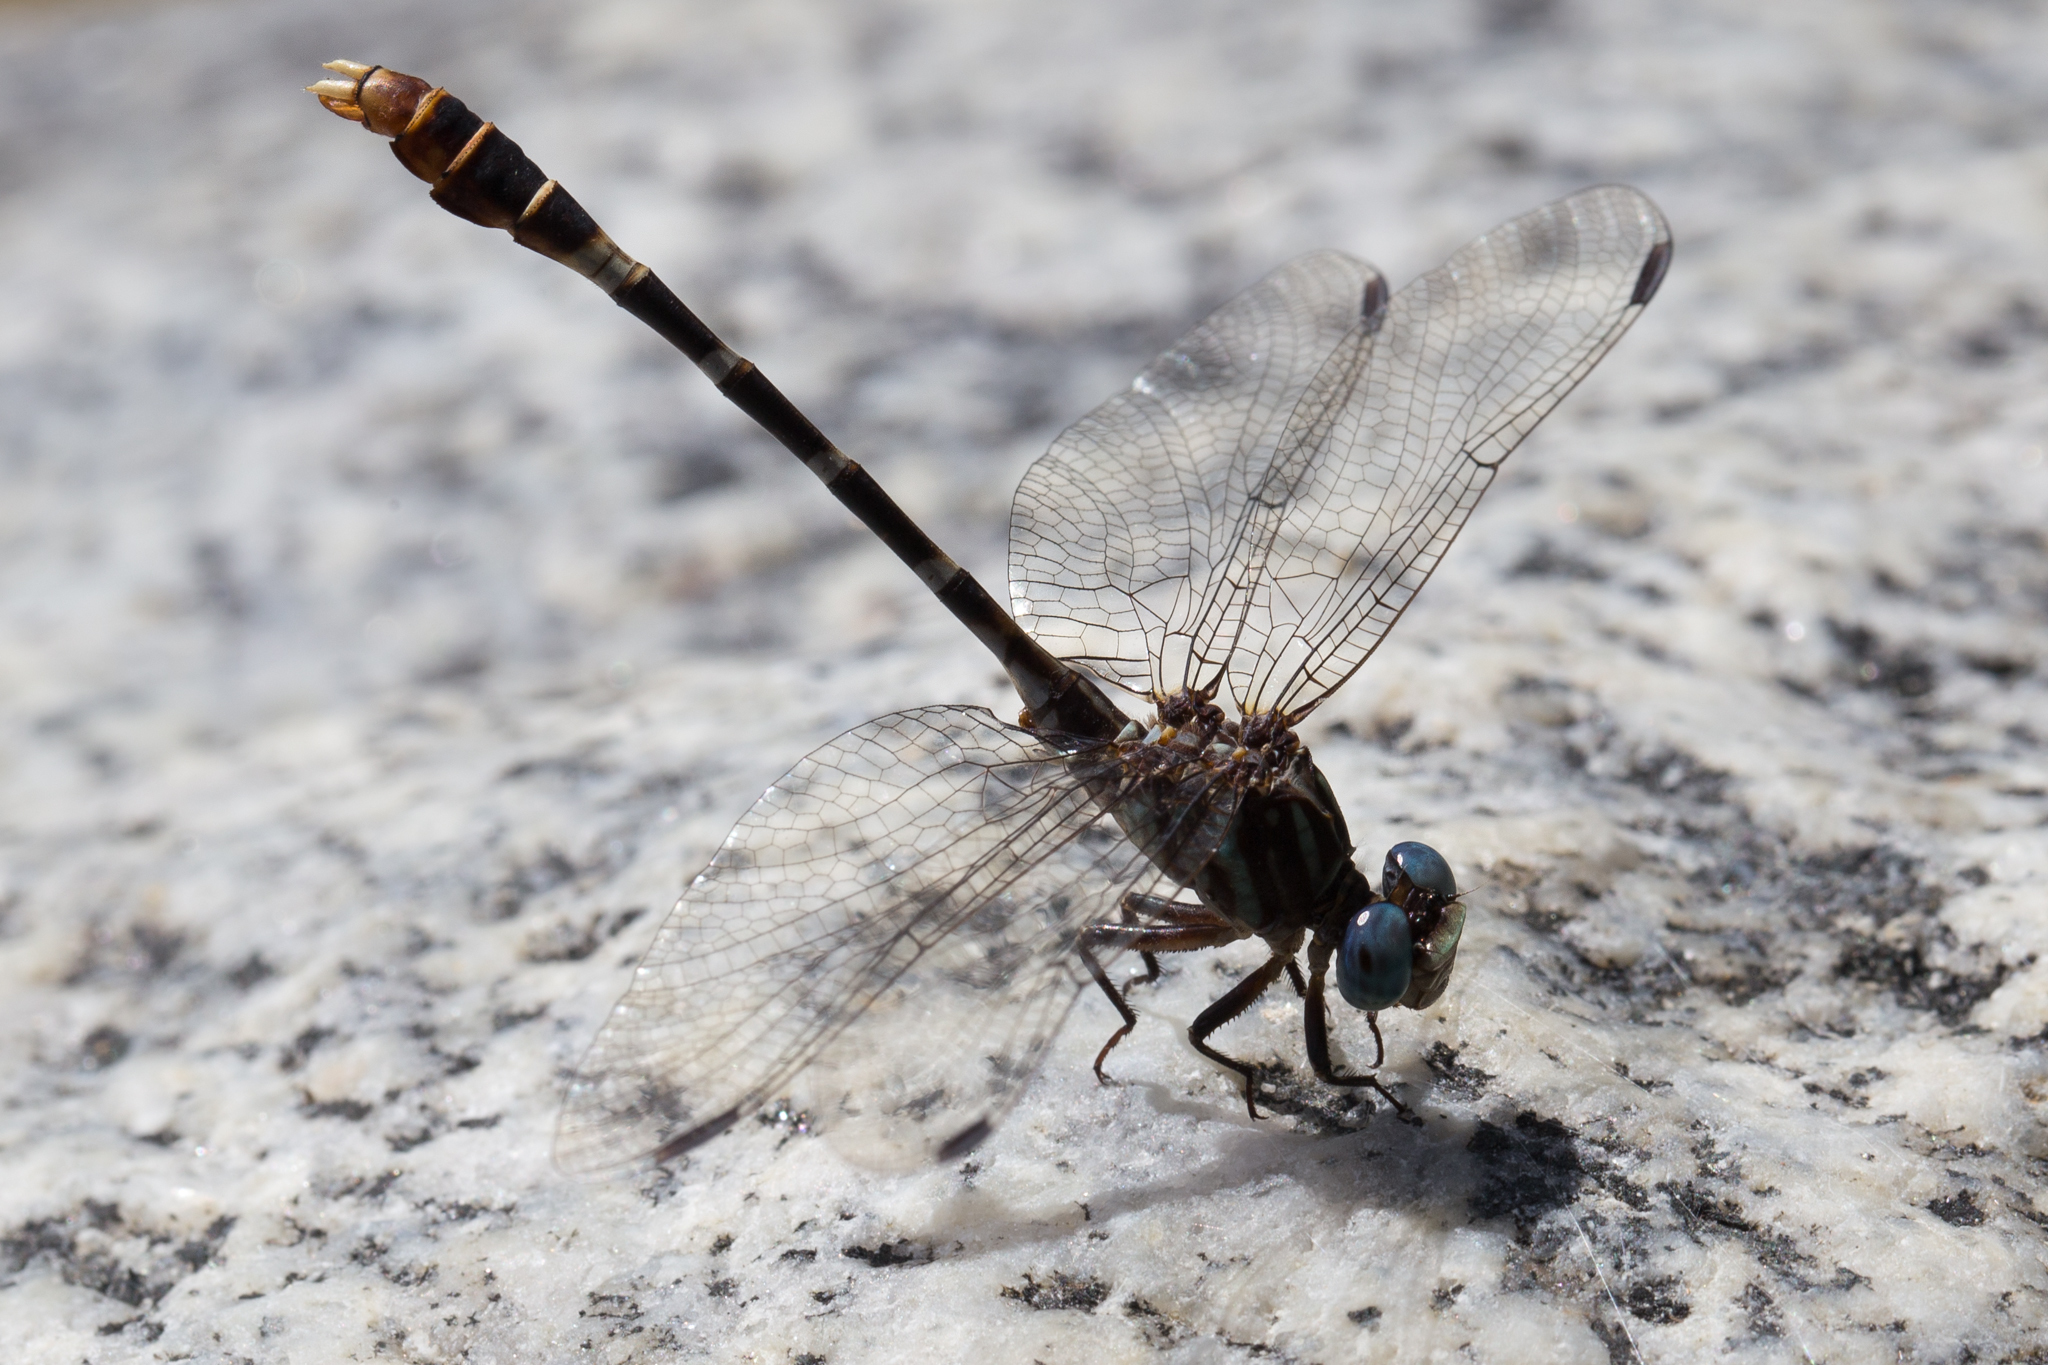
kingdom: Animalia
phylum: Arthropoda
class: Insecta
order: Odonata
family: Gomphidae
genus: Erpetogomphus
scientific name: Erpetogomphus lampropeltis
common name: Serpent ringtail
